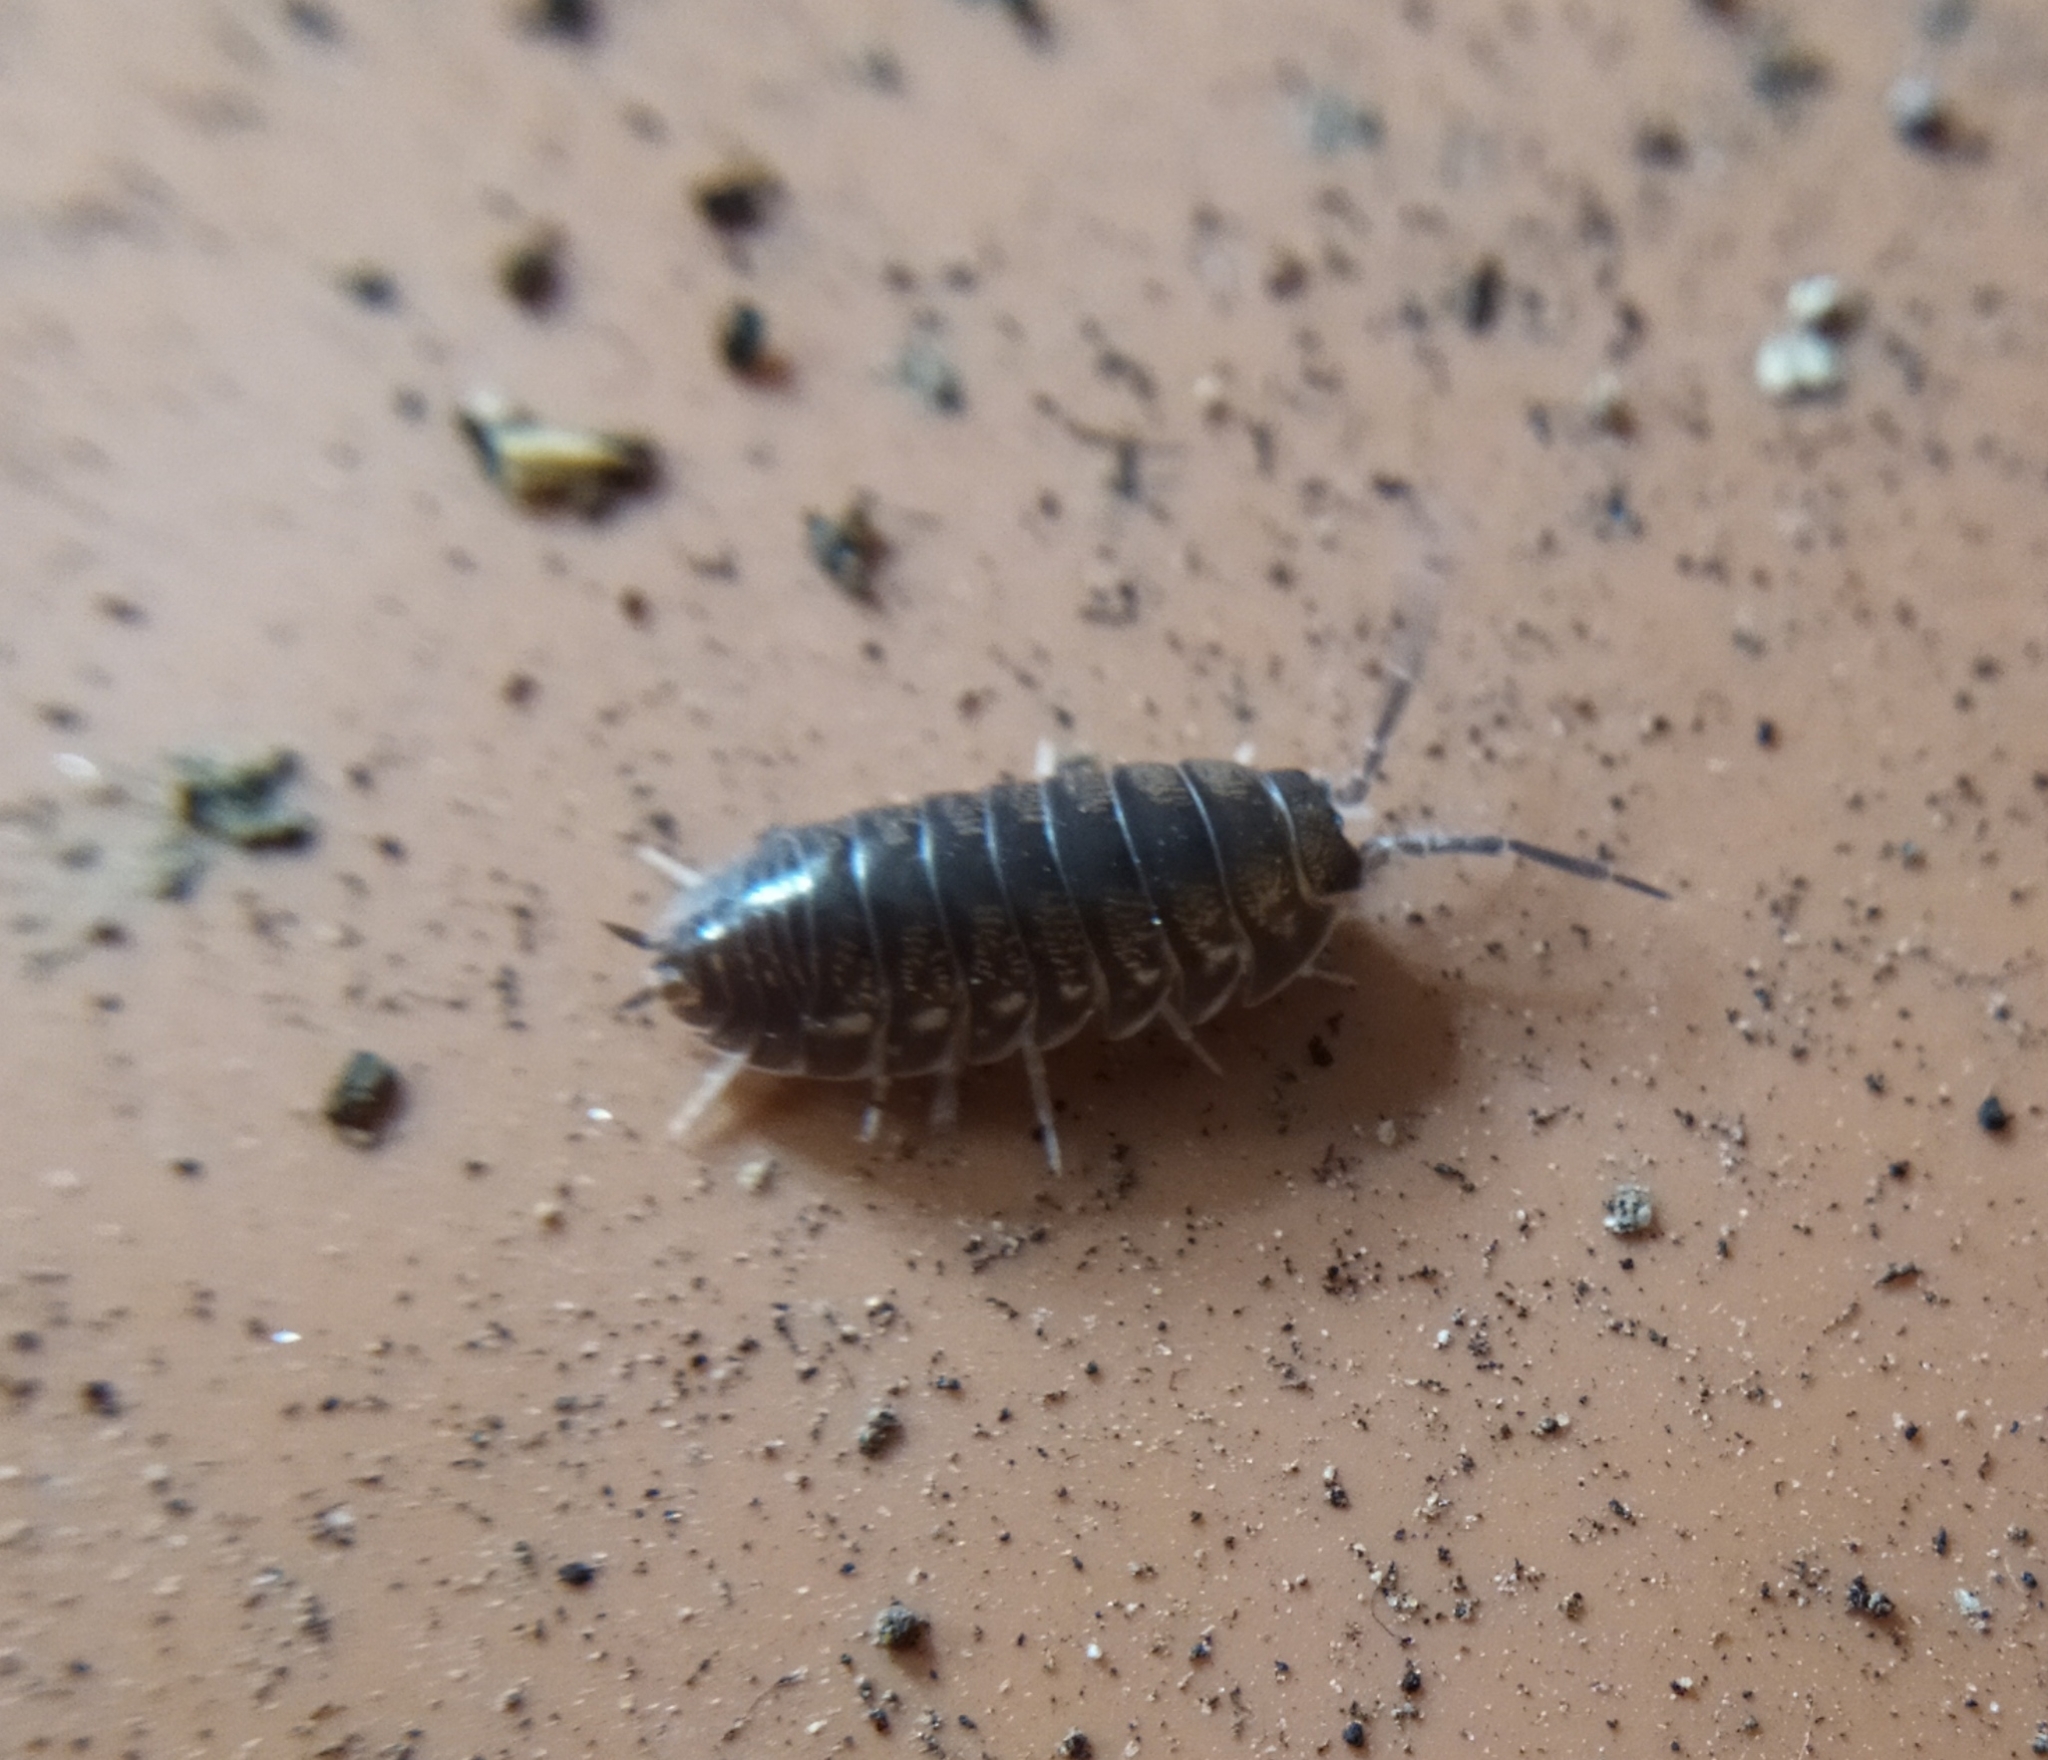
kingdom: Animalia
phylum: Arthropoda
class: Malacostraca
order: Isopoda
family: Cylisticidae
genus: Cylisticus
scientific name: Cylisticus convexus
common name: Curly woodlouse
